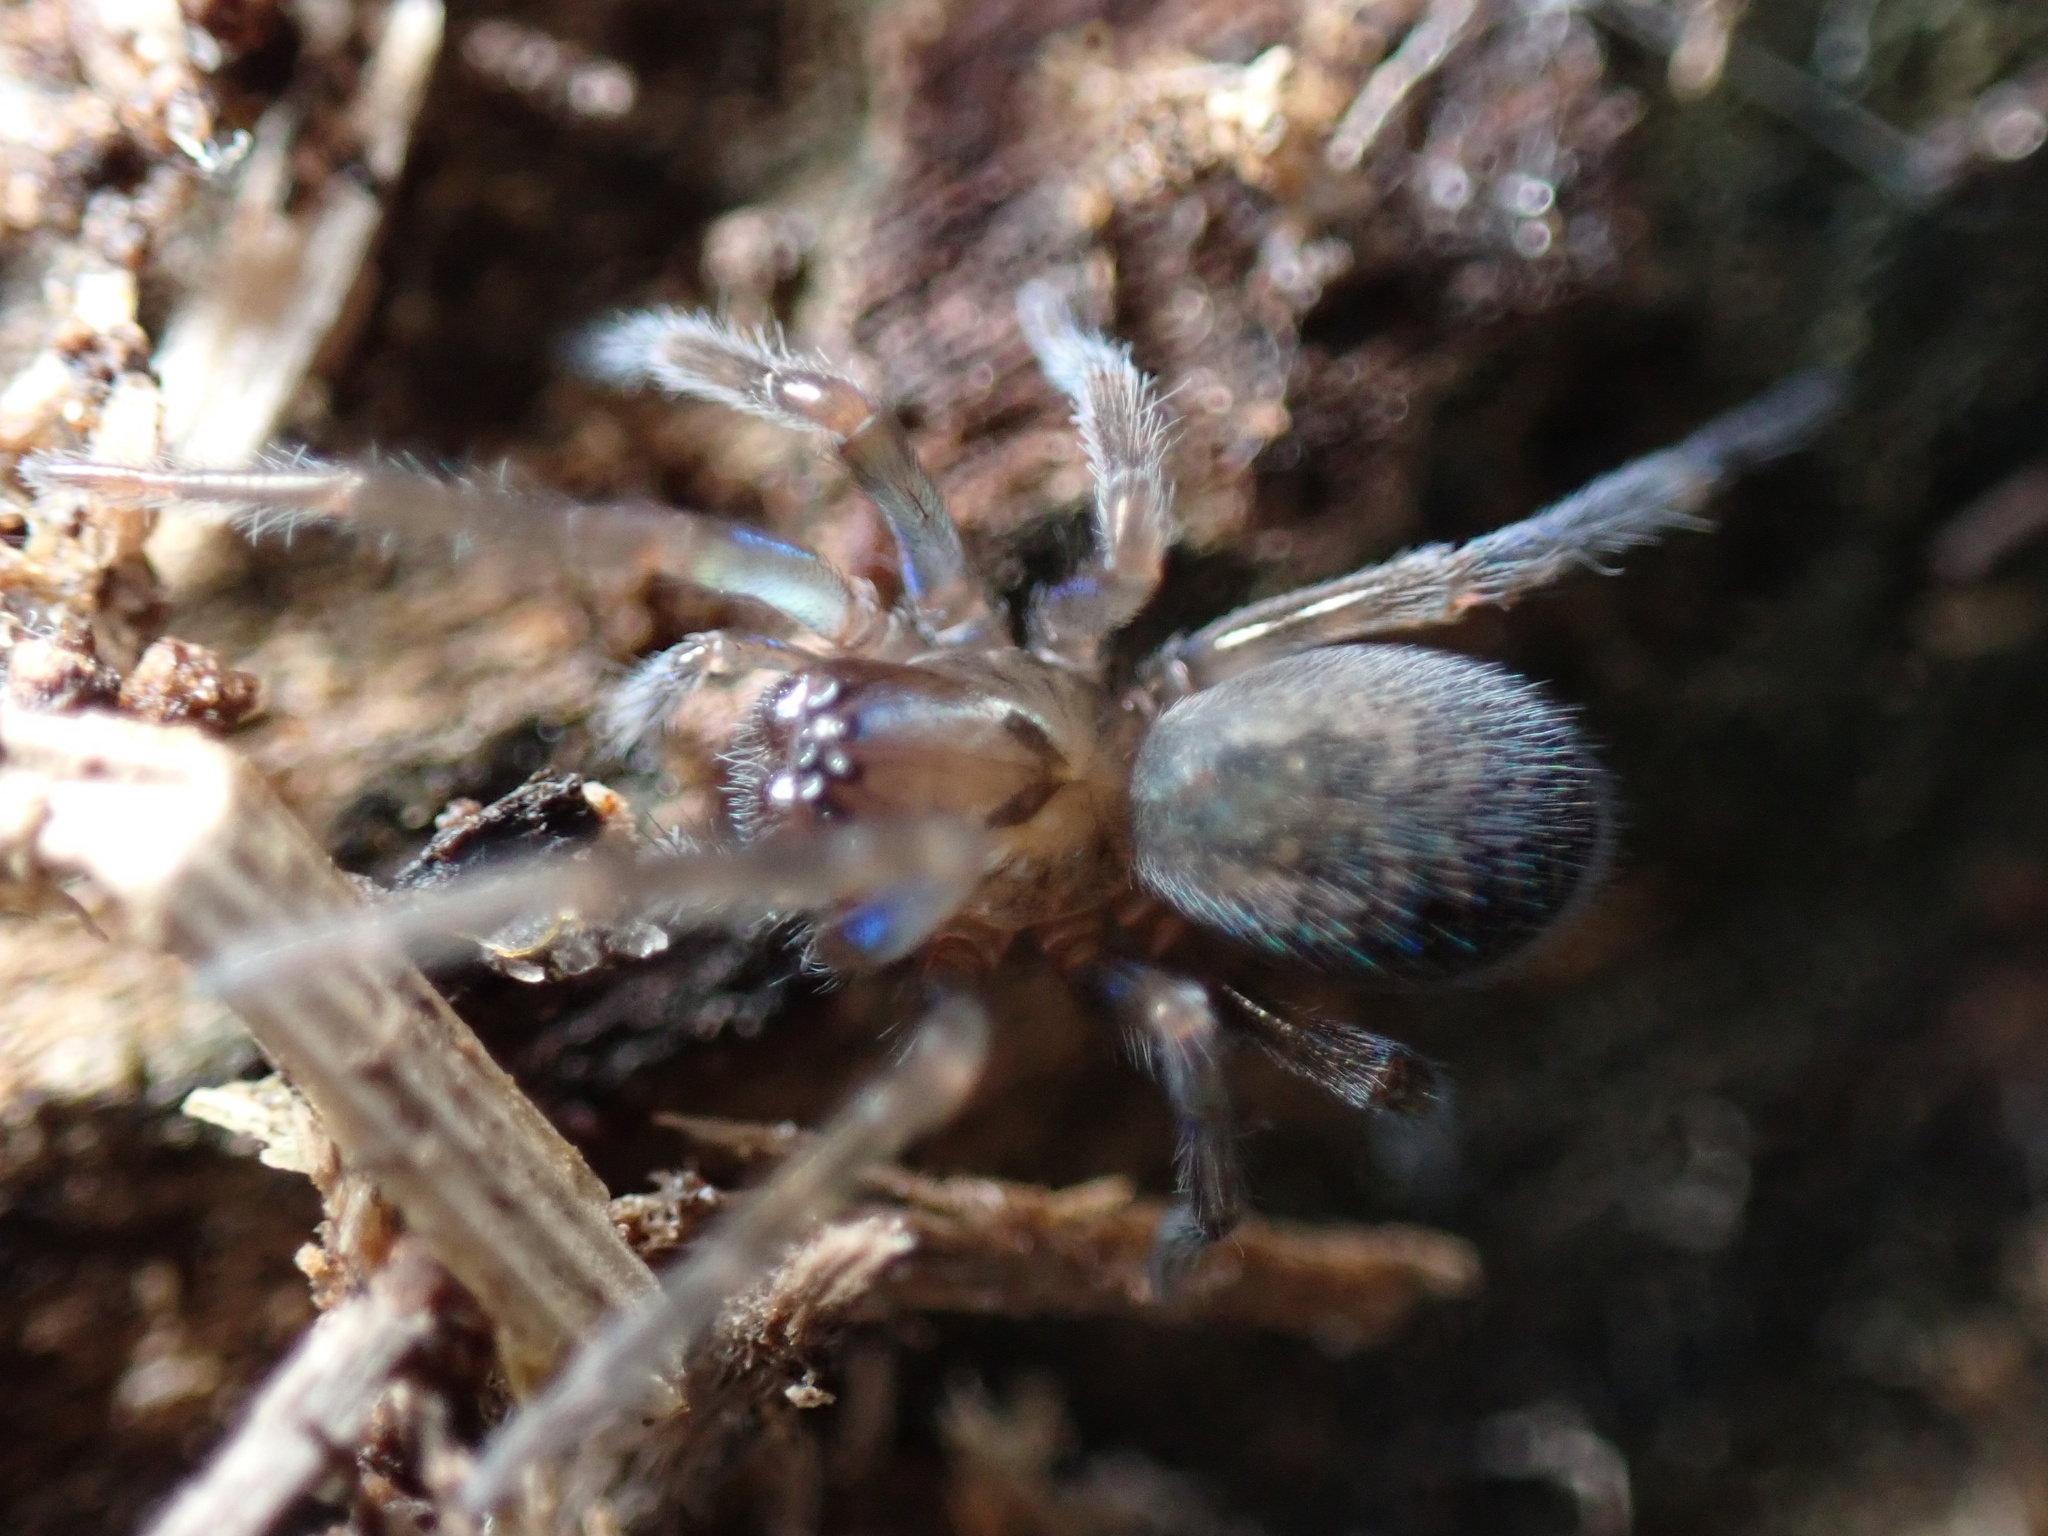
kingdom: Animalia
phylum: Arthropoda
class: Arachnida
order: Araneae
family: Amaurobiidae
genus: Amaurobius
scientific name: Amaurobius ferox
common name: Black laceweaver
